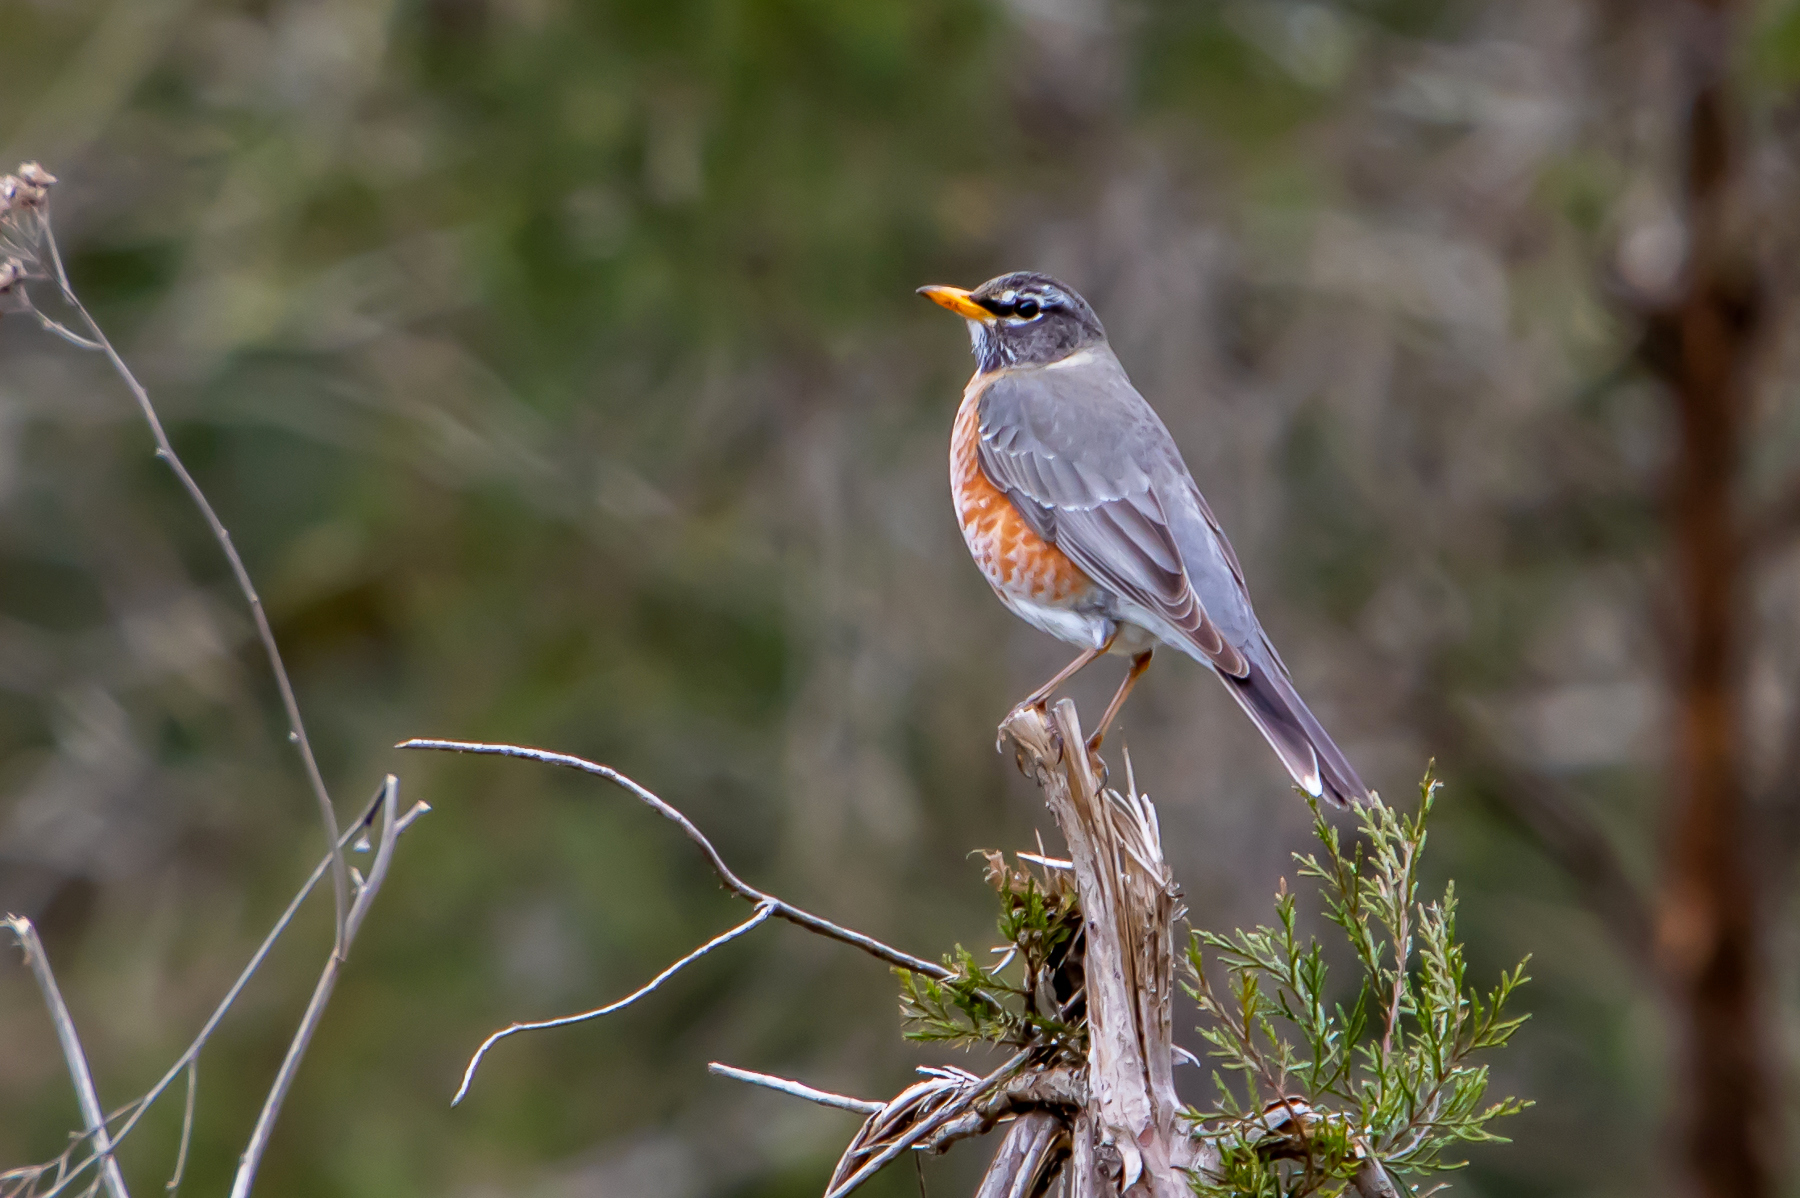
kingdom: Animalia
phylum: Chordata
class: Aves
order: Passeriformes
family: Turdidae
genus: Turdus
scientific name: Turdus migratorius
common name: American robin
